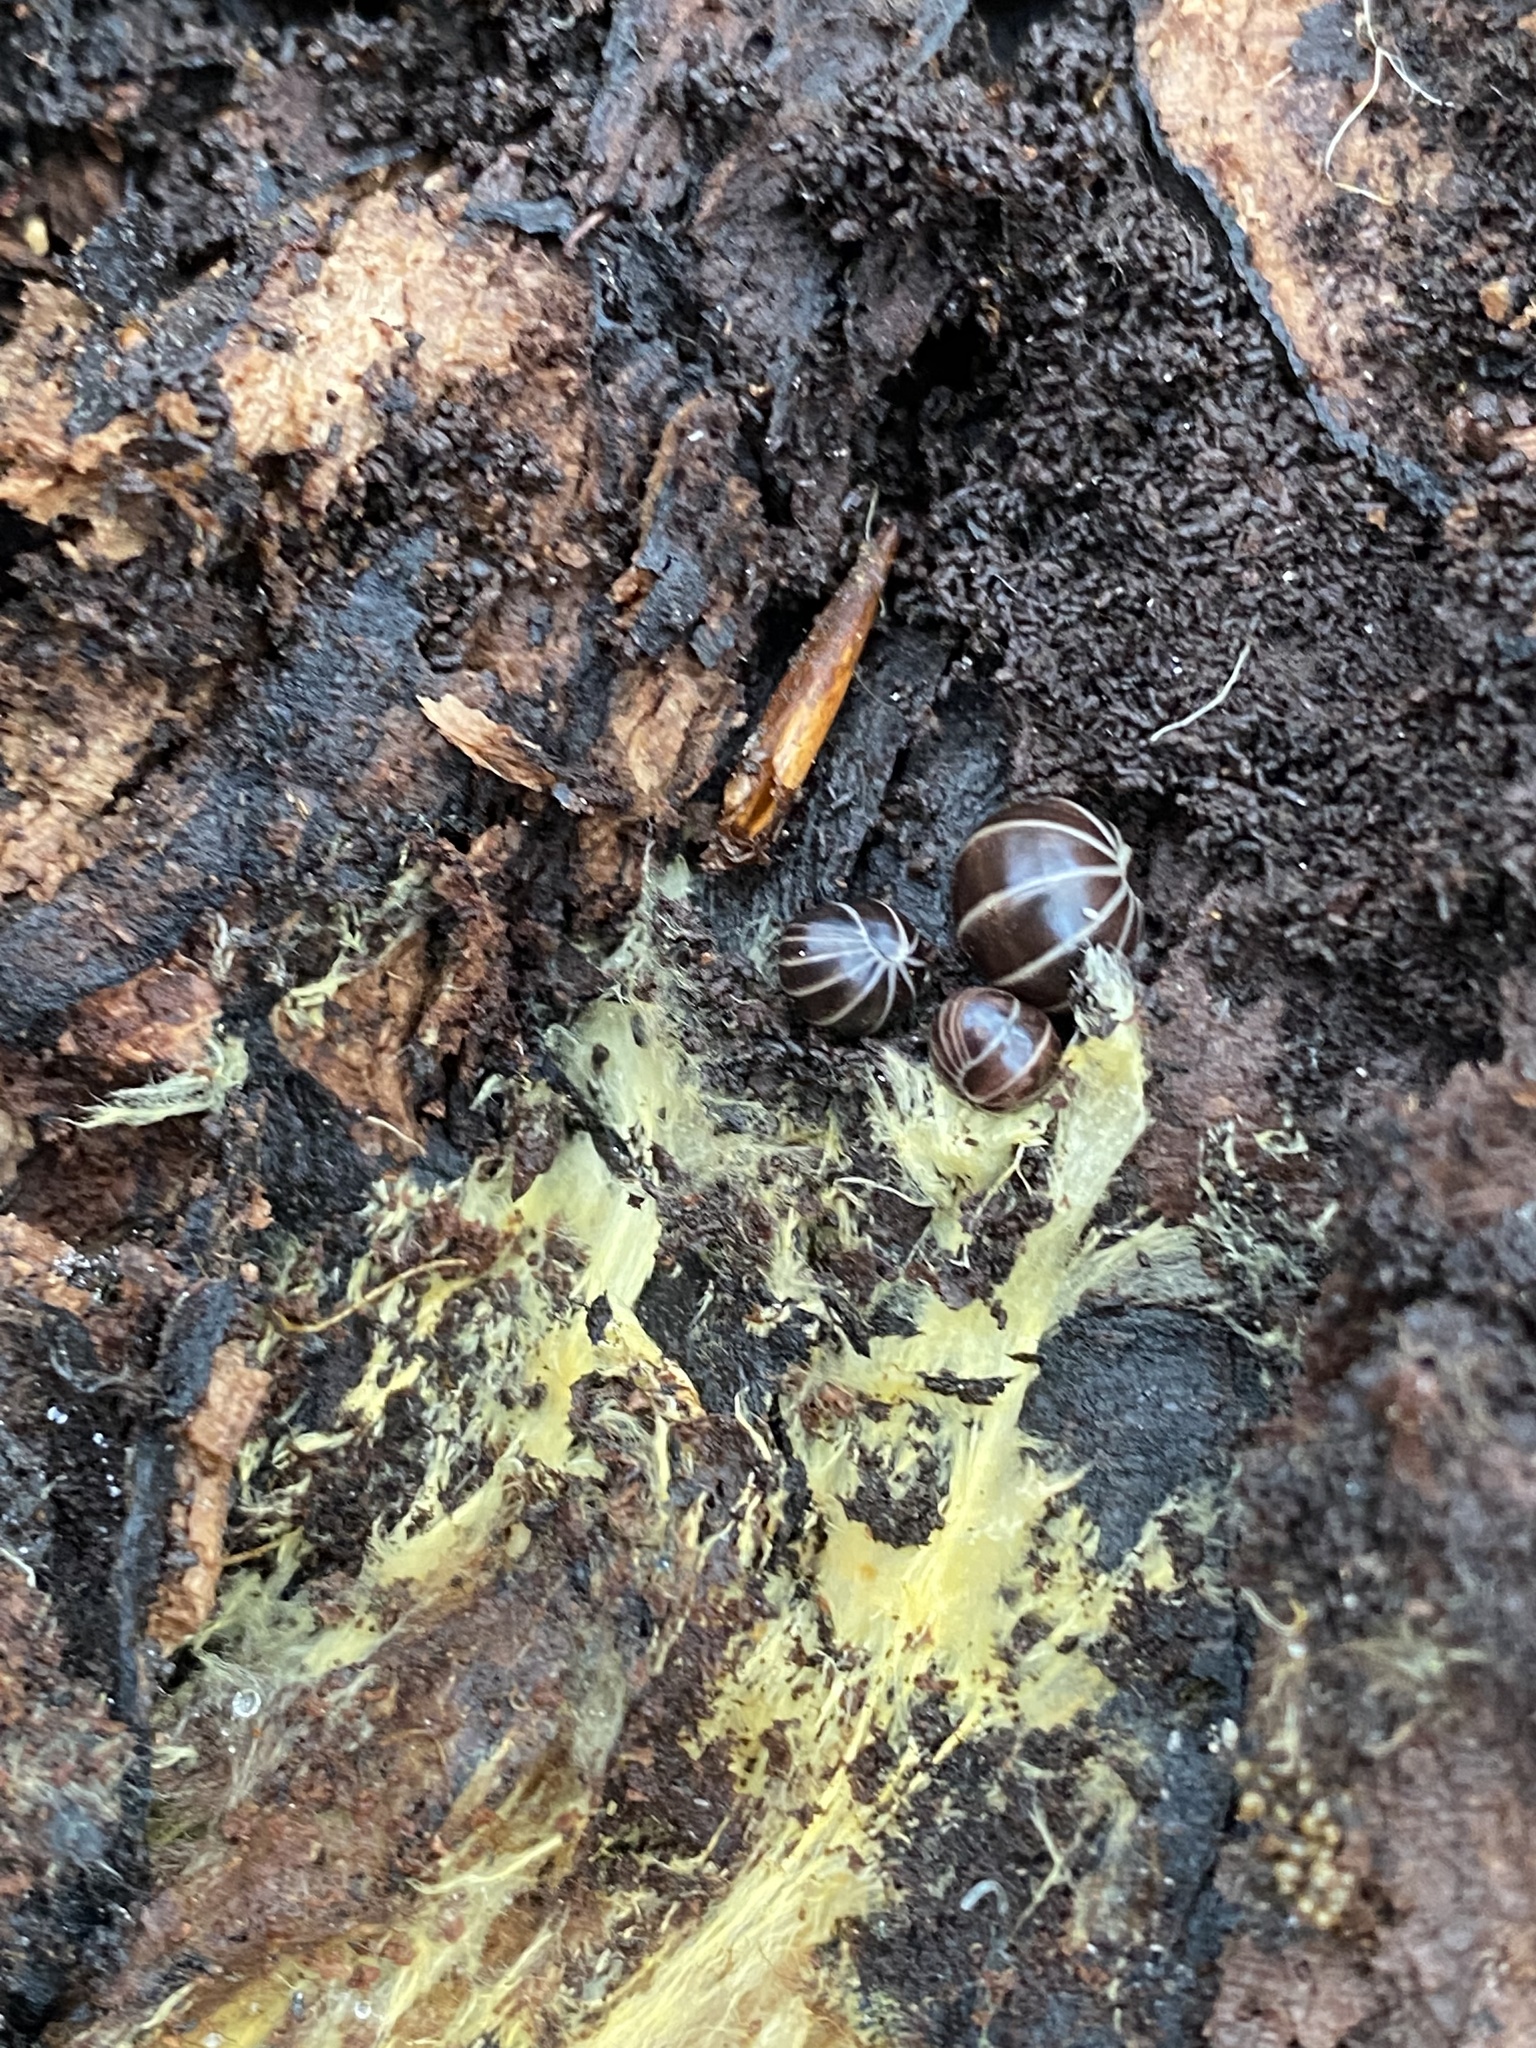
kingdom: Animalia
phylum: Arthropoda
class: Diplopoda
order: Glomerida
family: Glomeridae
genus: Glomeris
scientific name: Glomeris marginata
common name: Bordered pill millipede
